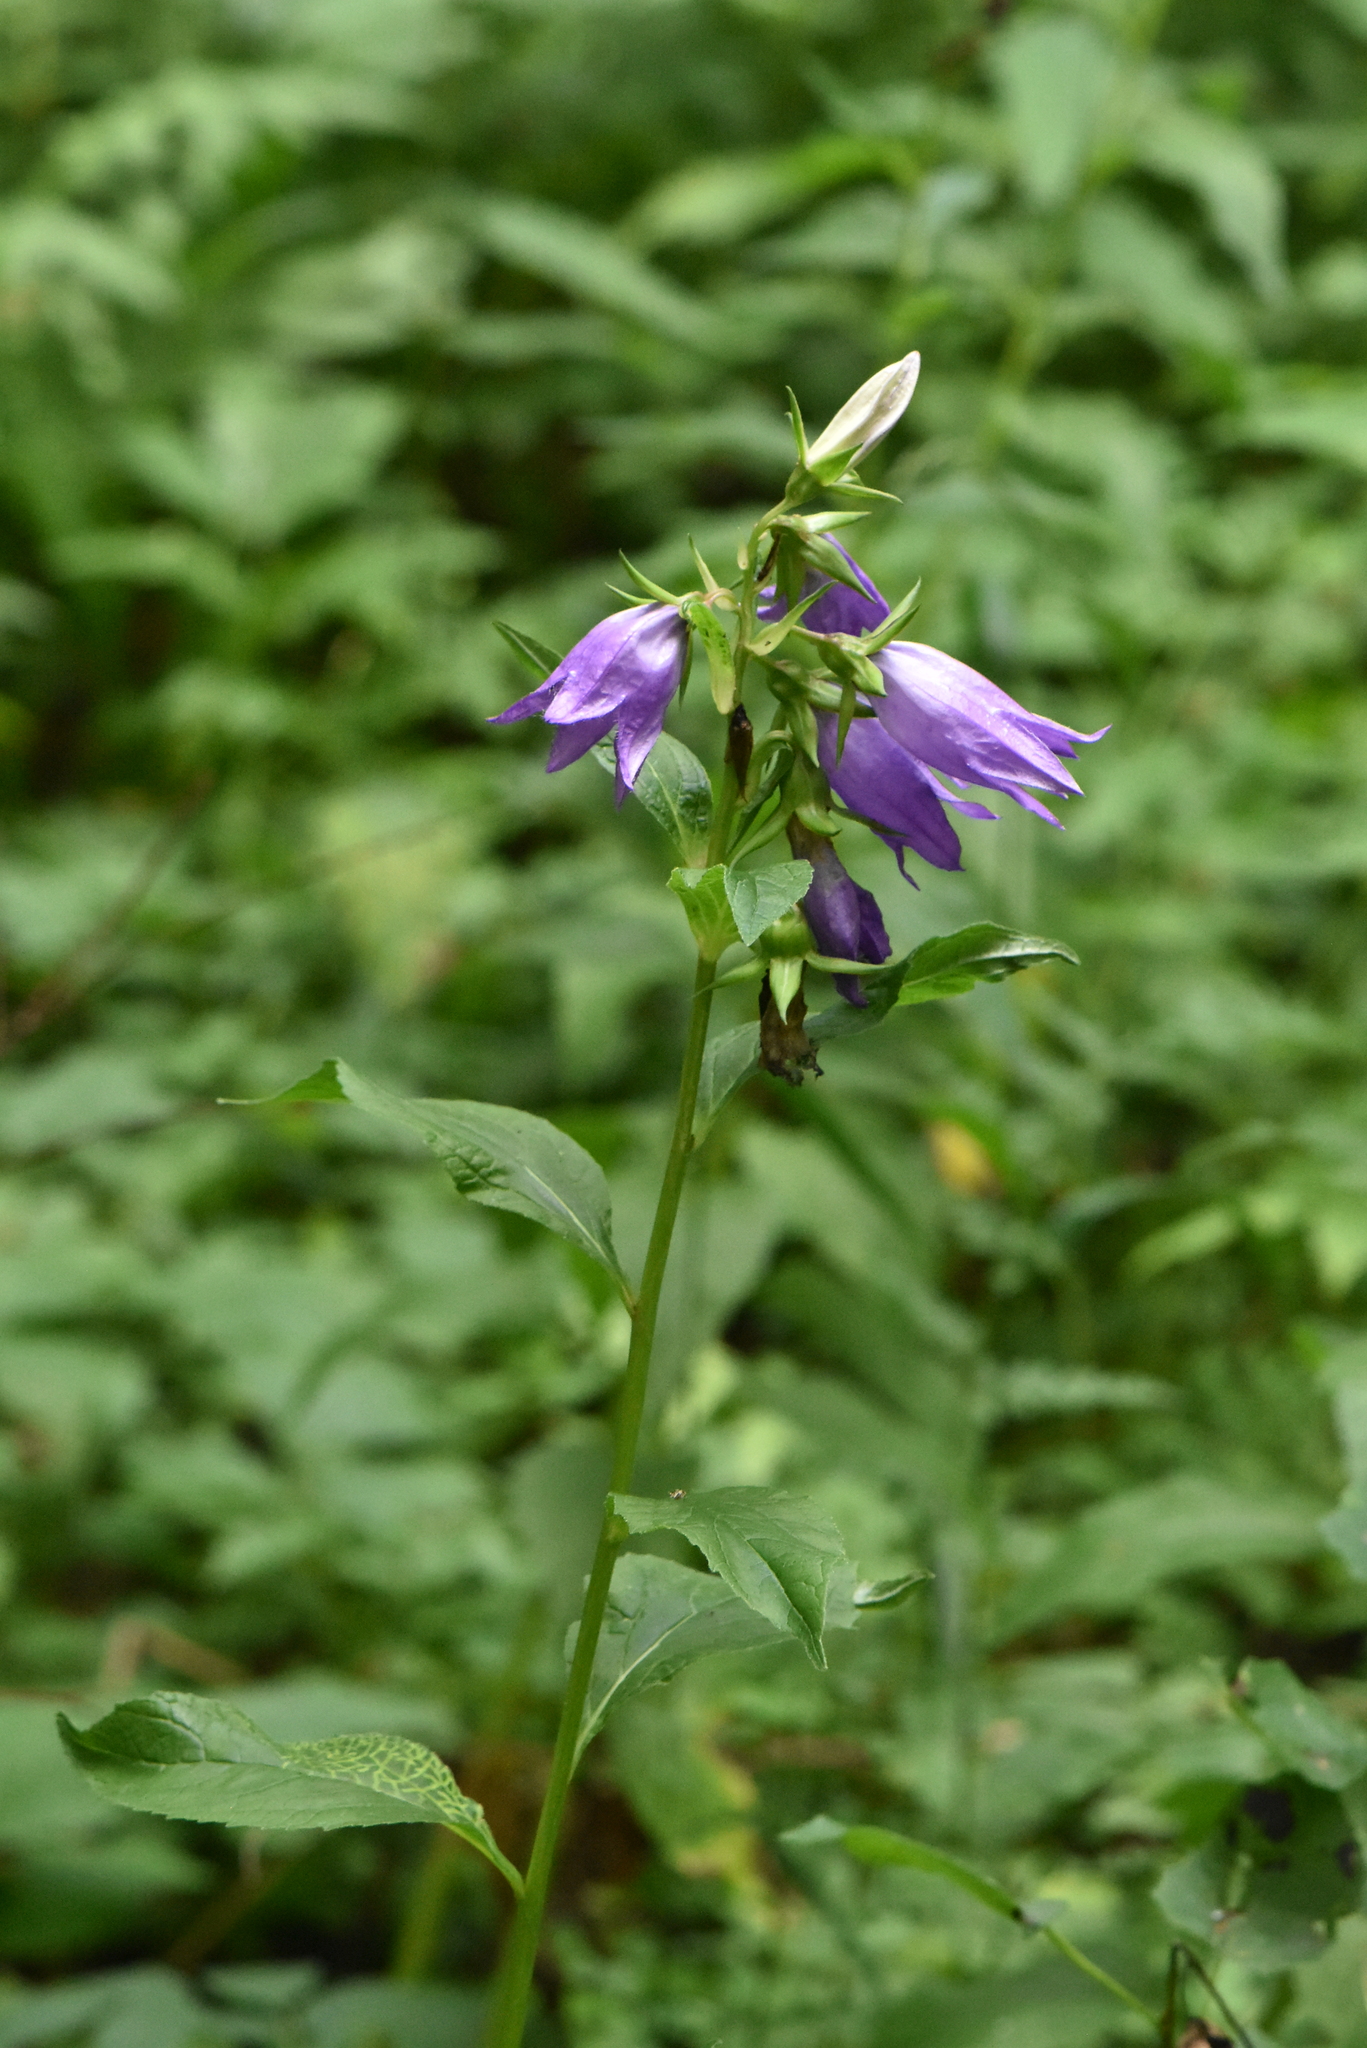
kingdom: Plantae
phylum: Tracheophyta
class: Magnoliopsida
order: Asterales
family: Campanulaceae
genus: Campanula
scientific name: Campanula latifolia
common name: Giant bellflower
